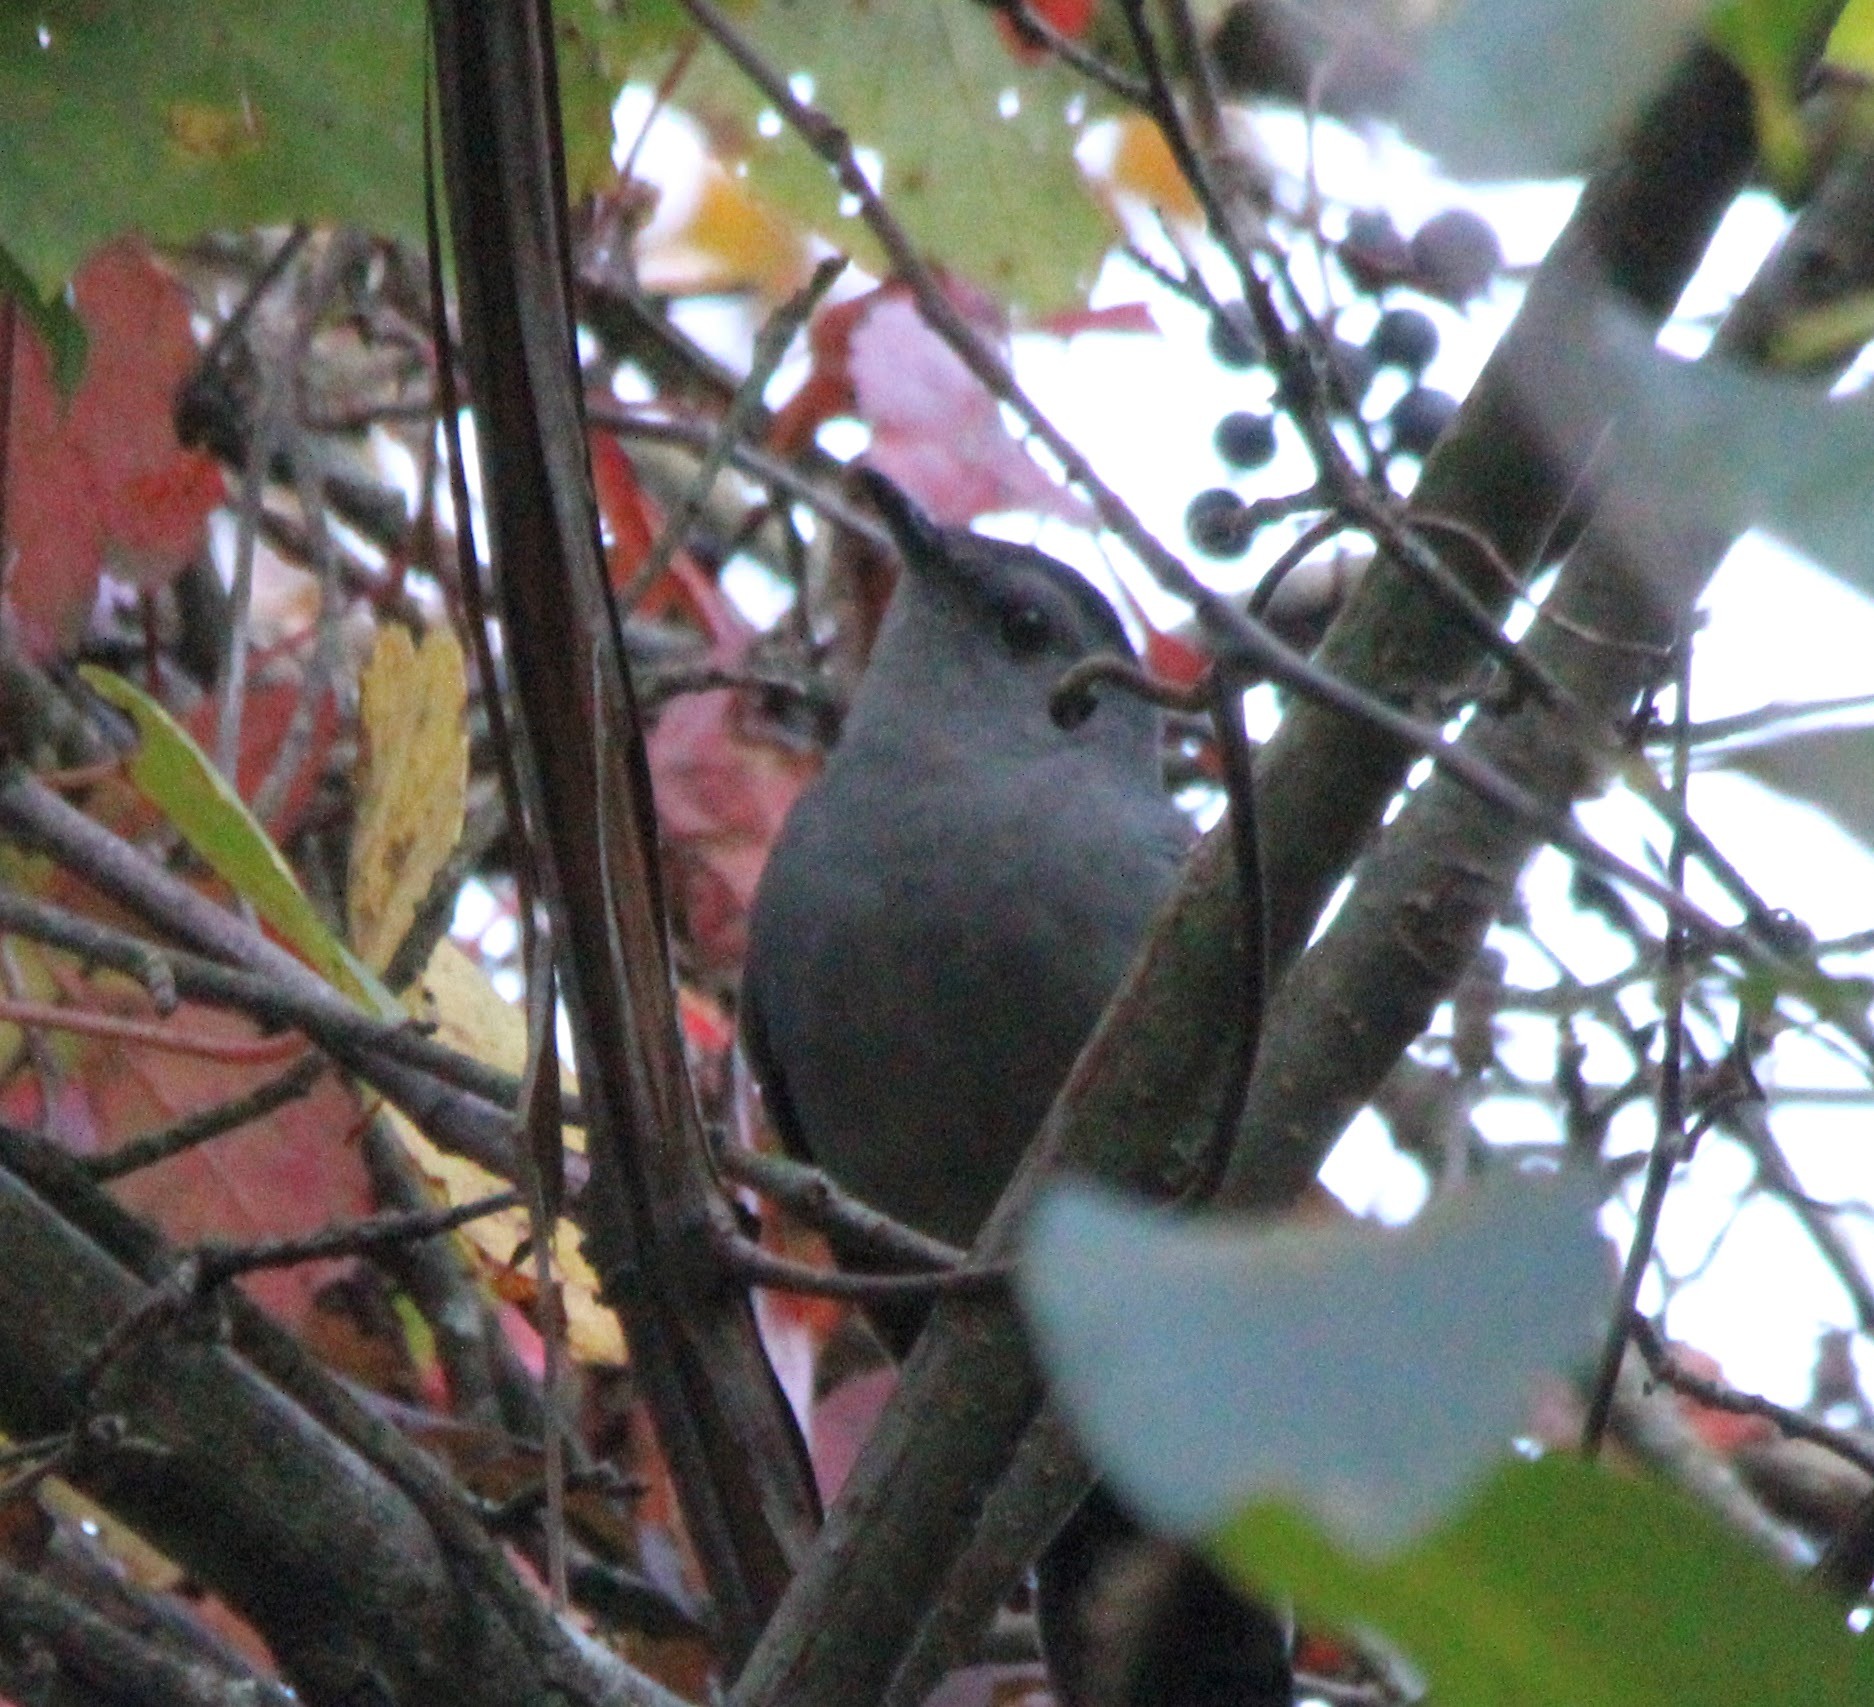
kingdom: Animalia
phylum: Chordata
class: Aves
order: Passeriformes
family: Mimidae
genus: Dumetella
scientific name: Dumetella carolinensis
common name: Gray catbird
